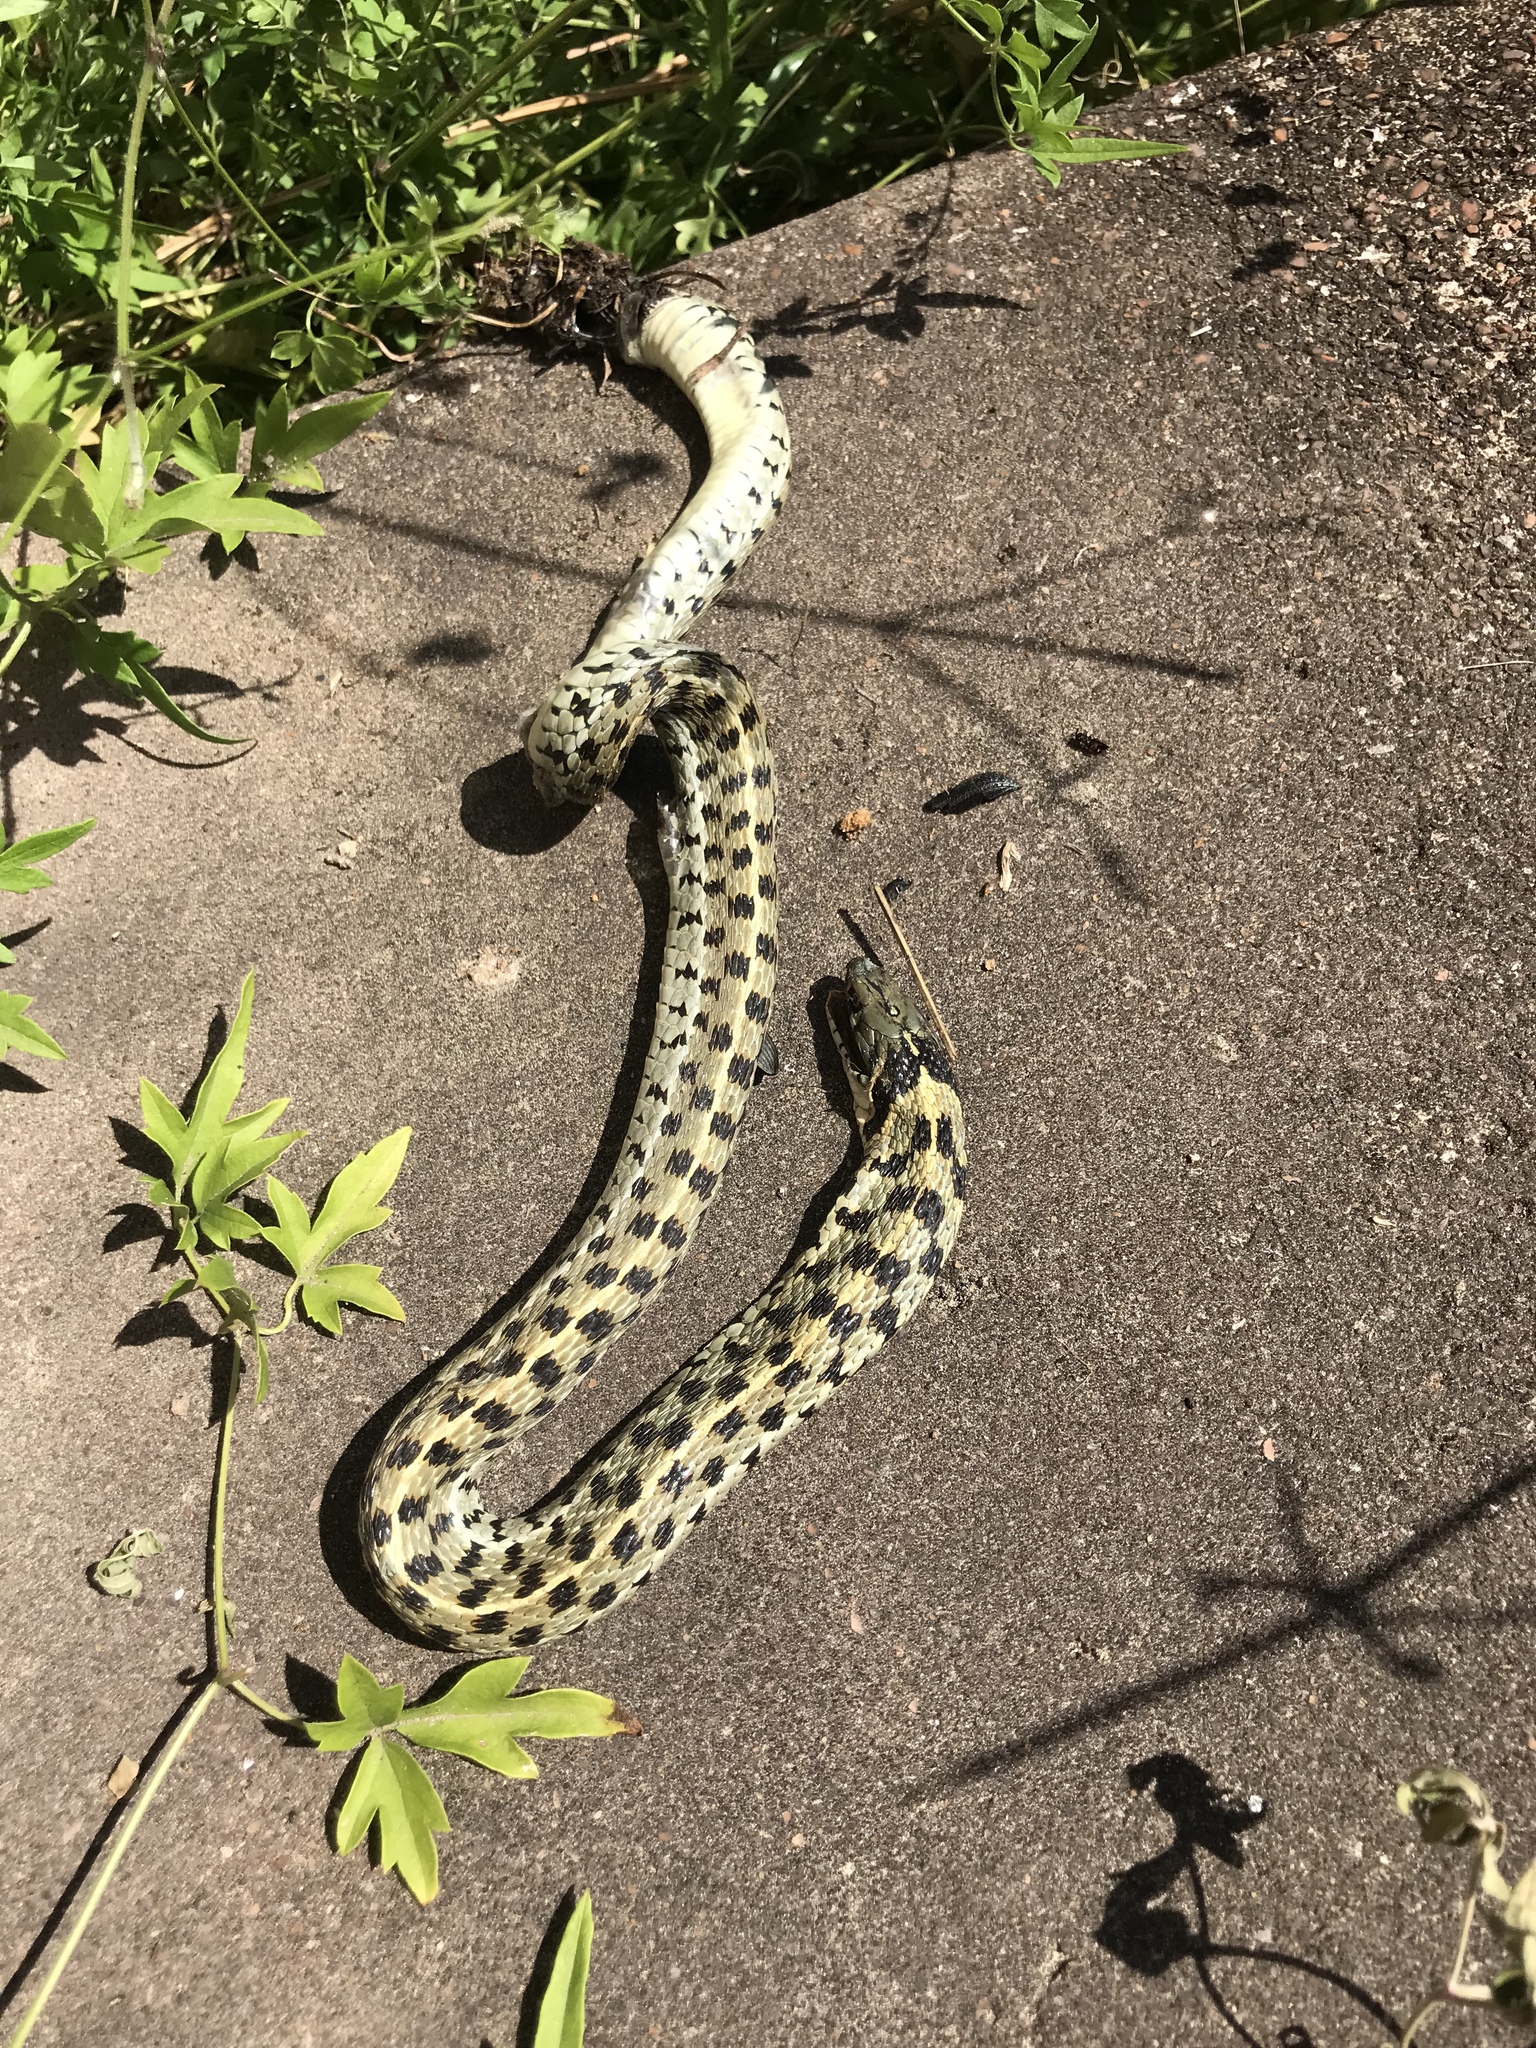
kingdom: Animalia
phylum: Chordata
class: Squamata
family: Colubridae
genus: Thamnophis
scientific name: Thamnophis marcianus
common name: Checkered garter snake
